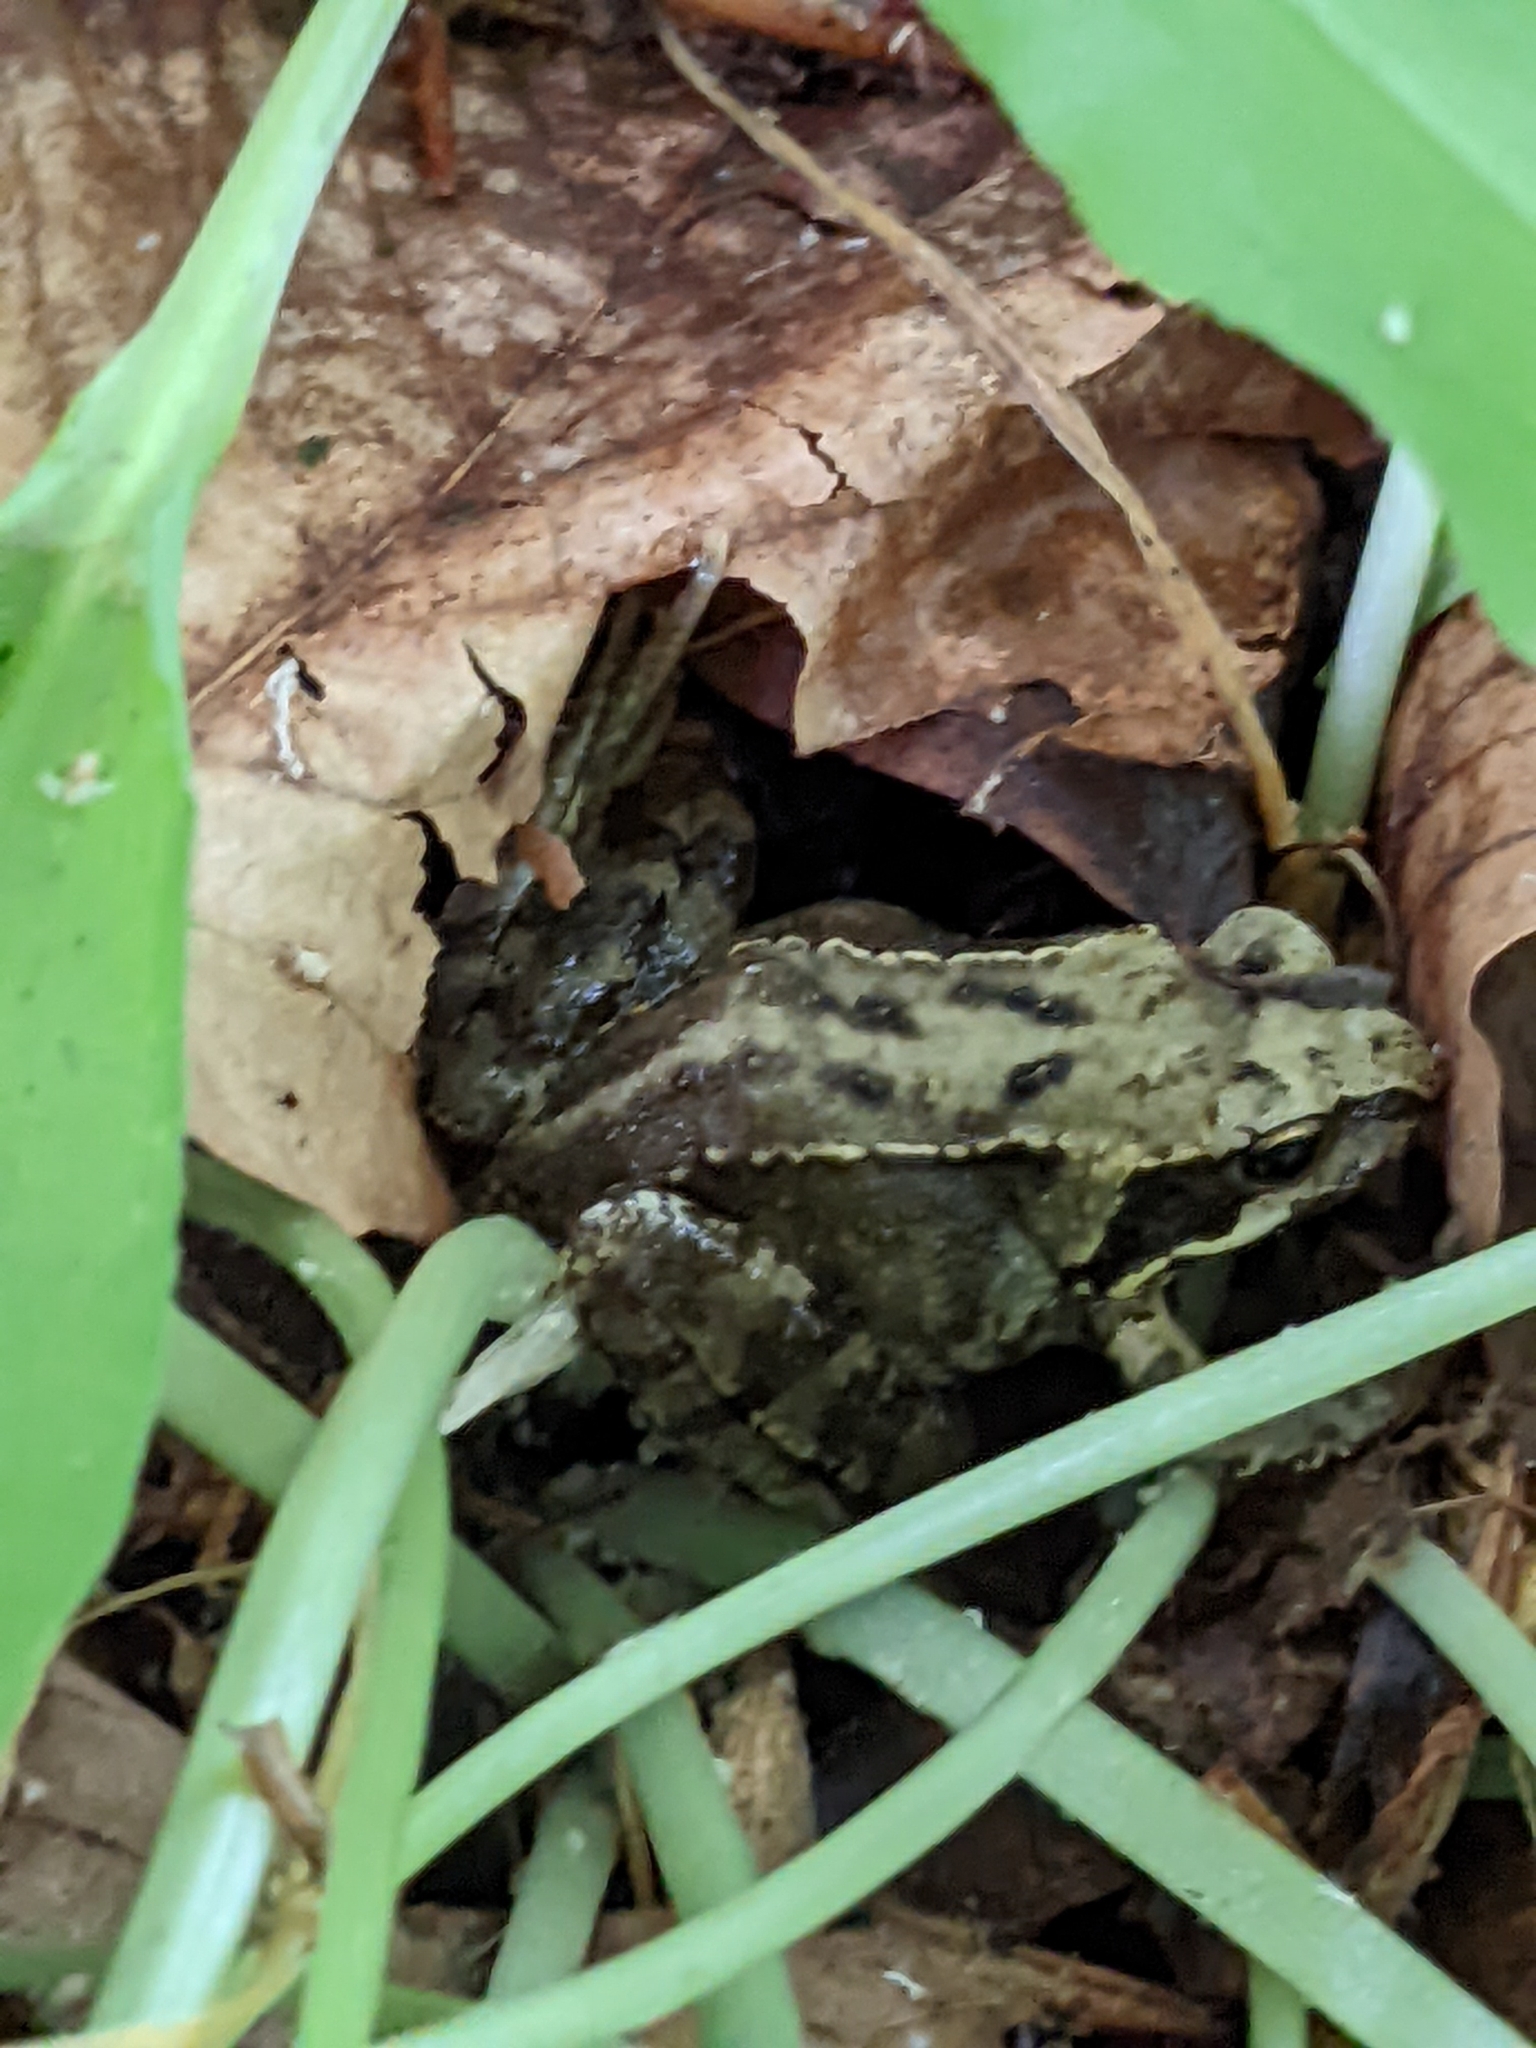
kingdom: Animalia
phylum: Chordata
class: Amphibia
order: Anura
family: Ranidae
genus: Rana
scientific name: Rana temporaria
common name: Common frog
